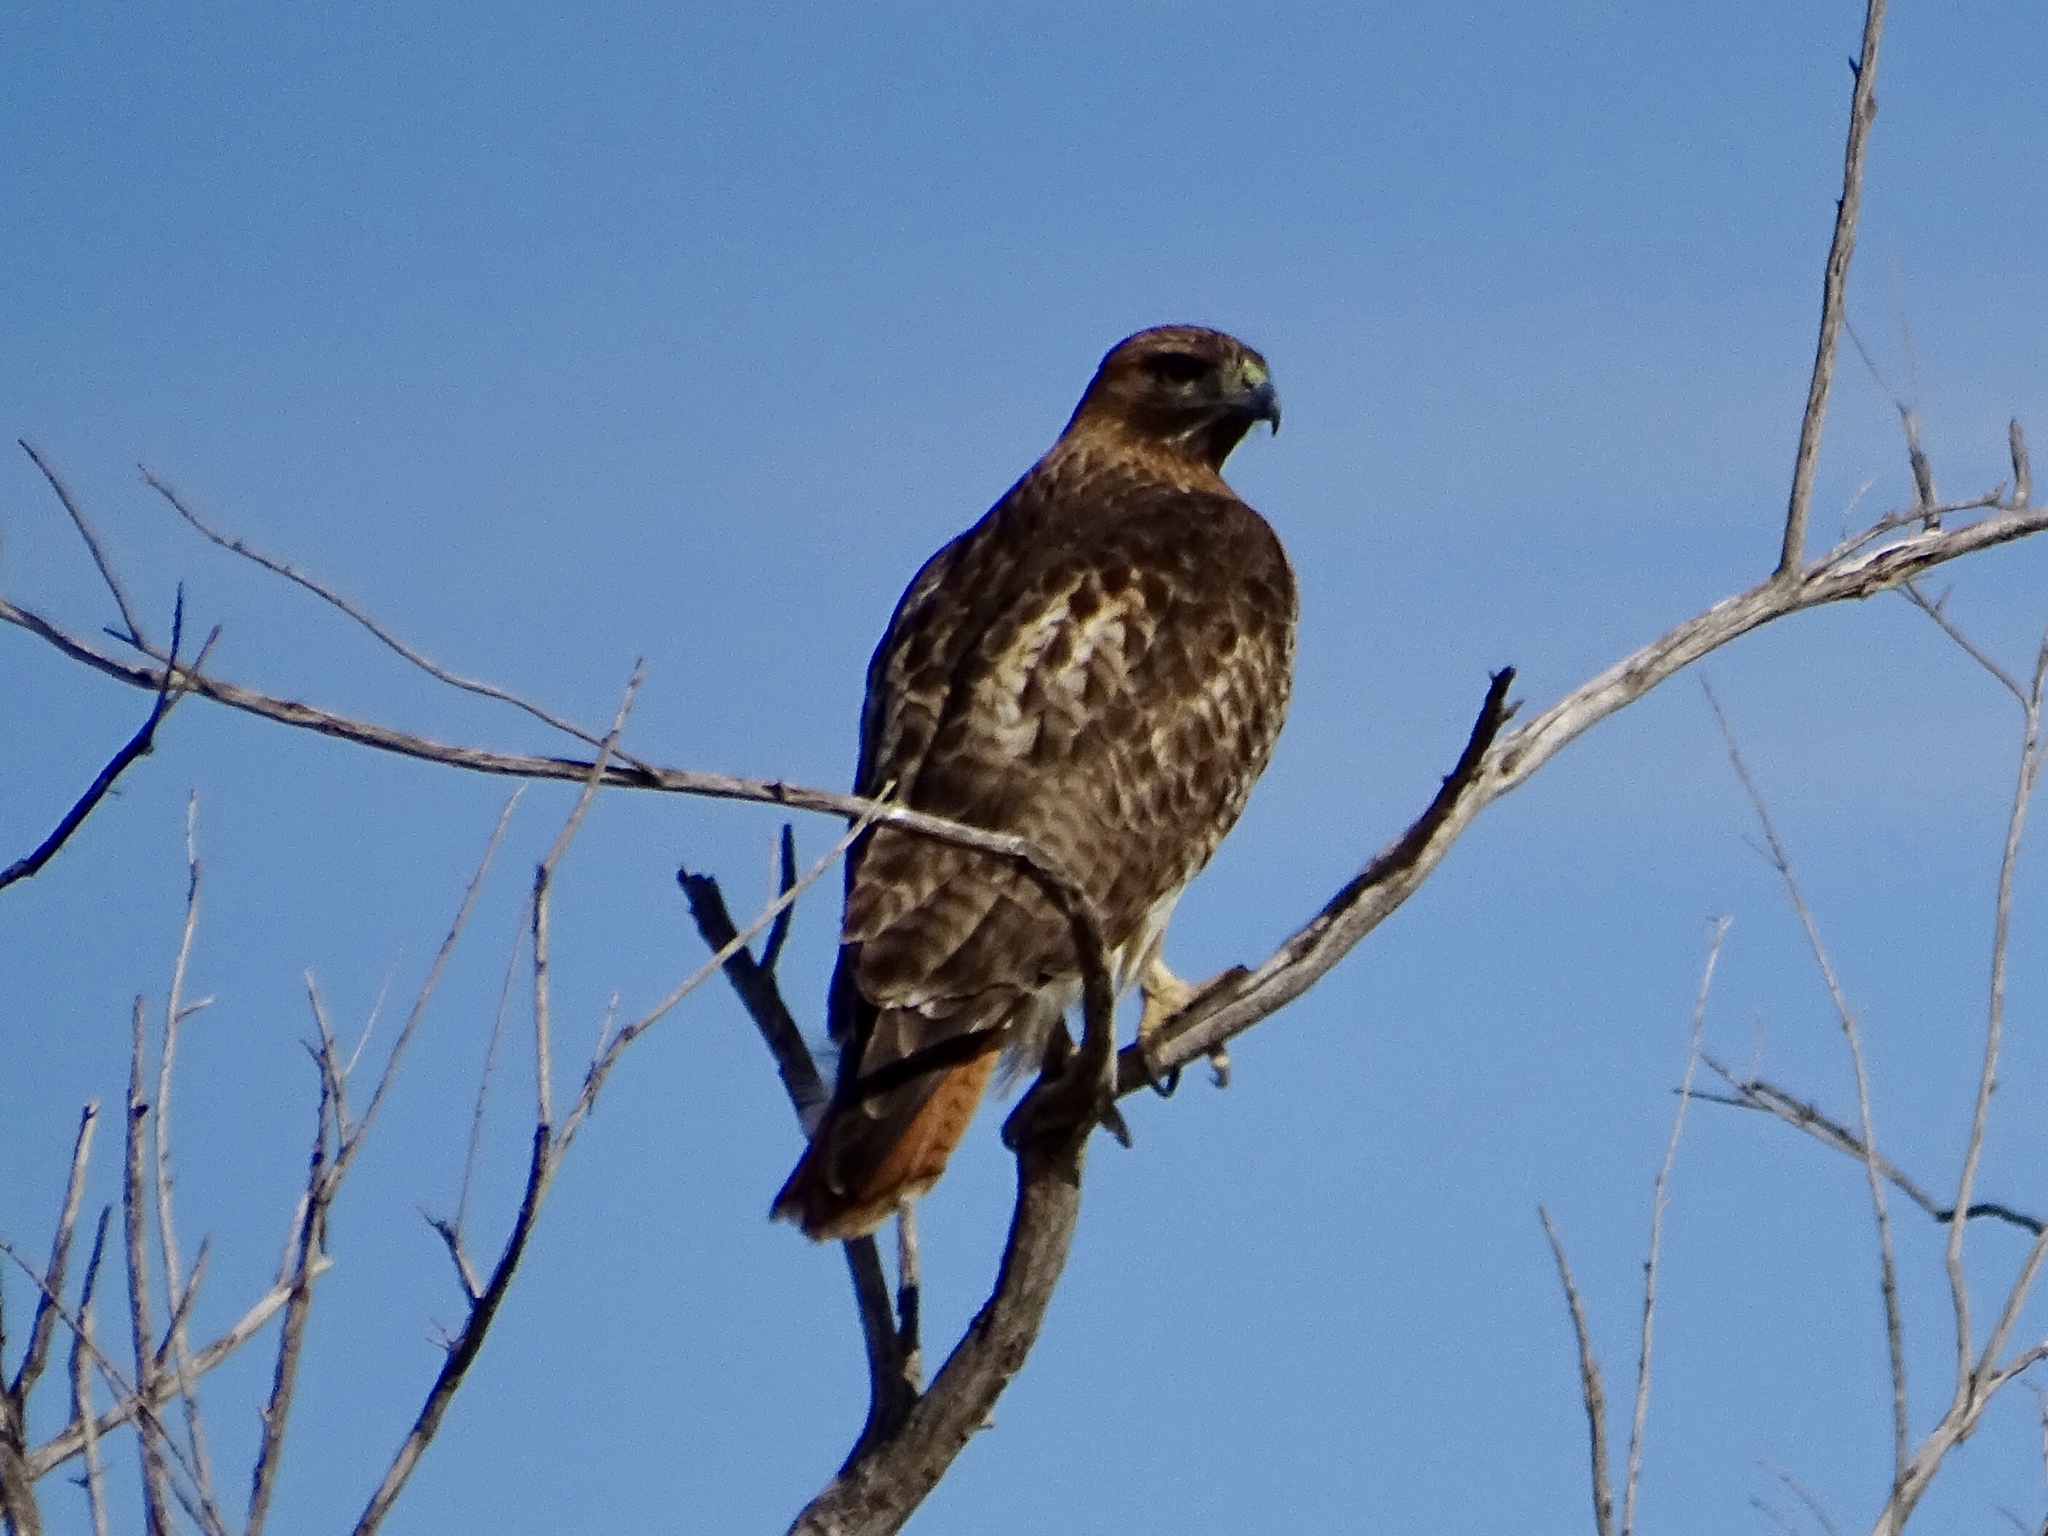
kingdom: Animalia
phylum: Chordata
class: Aves
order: Accipitriformes
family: Accipitridae
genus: Buteo
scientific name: Buteo jamaicensis
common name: Red-tailed hawk
